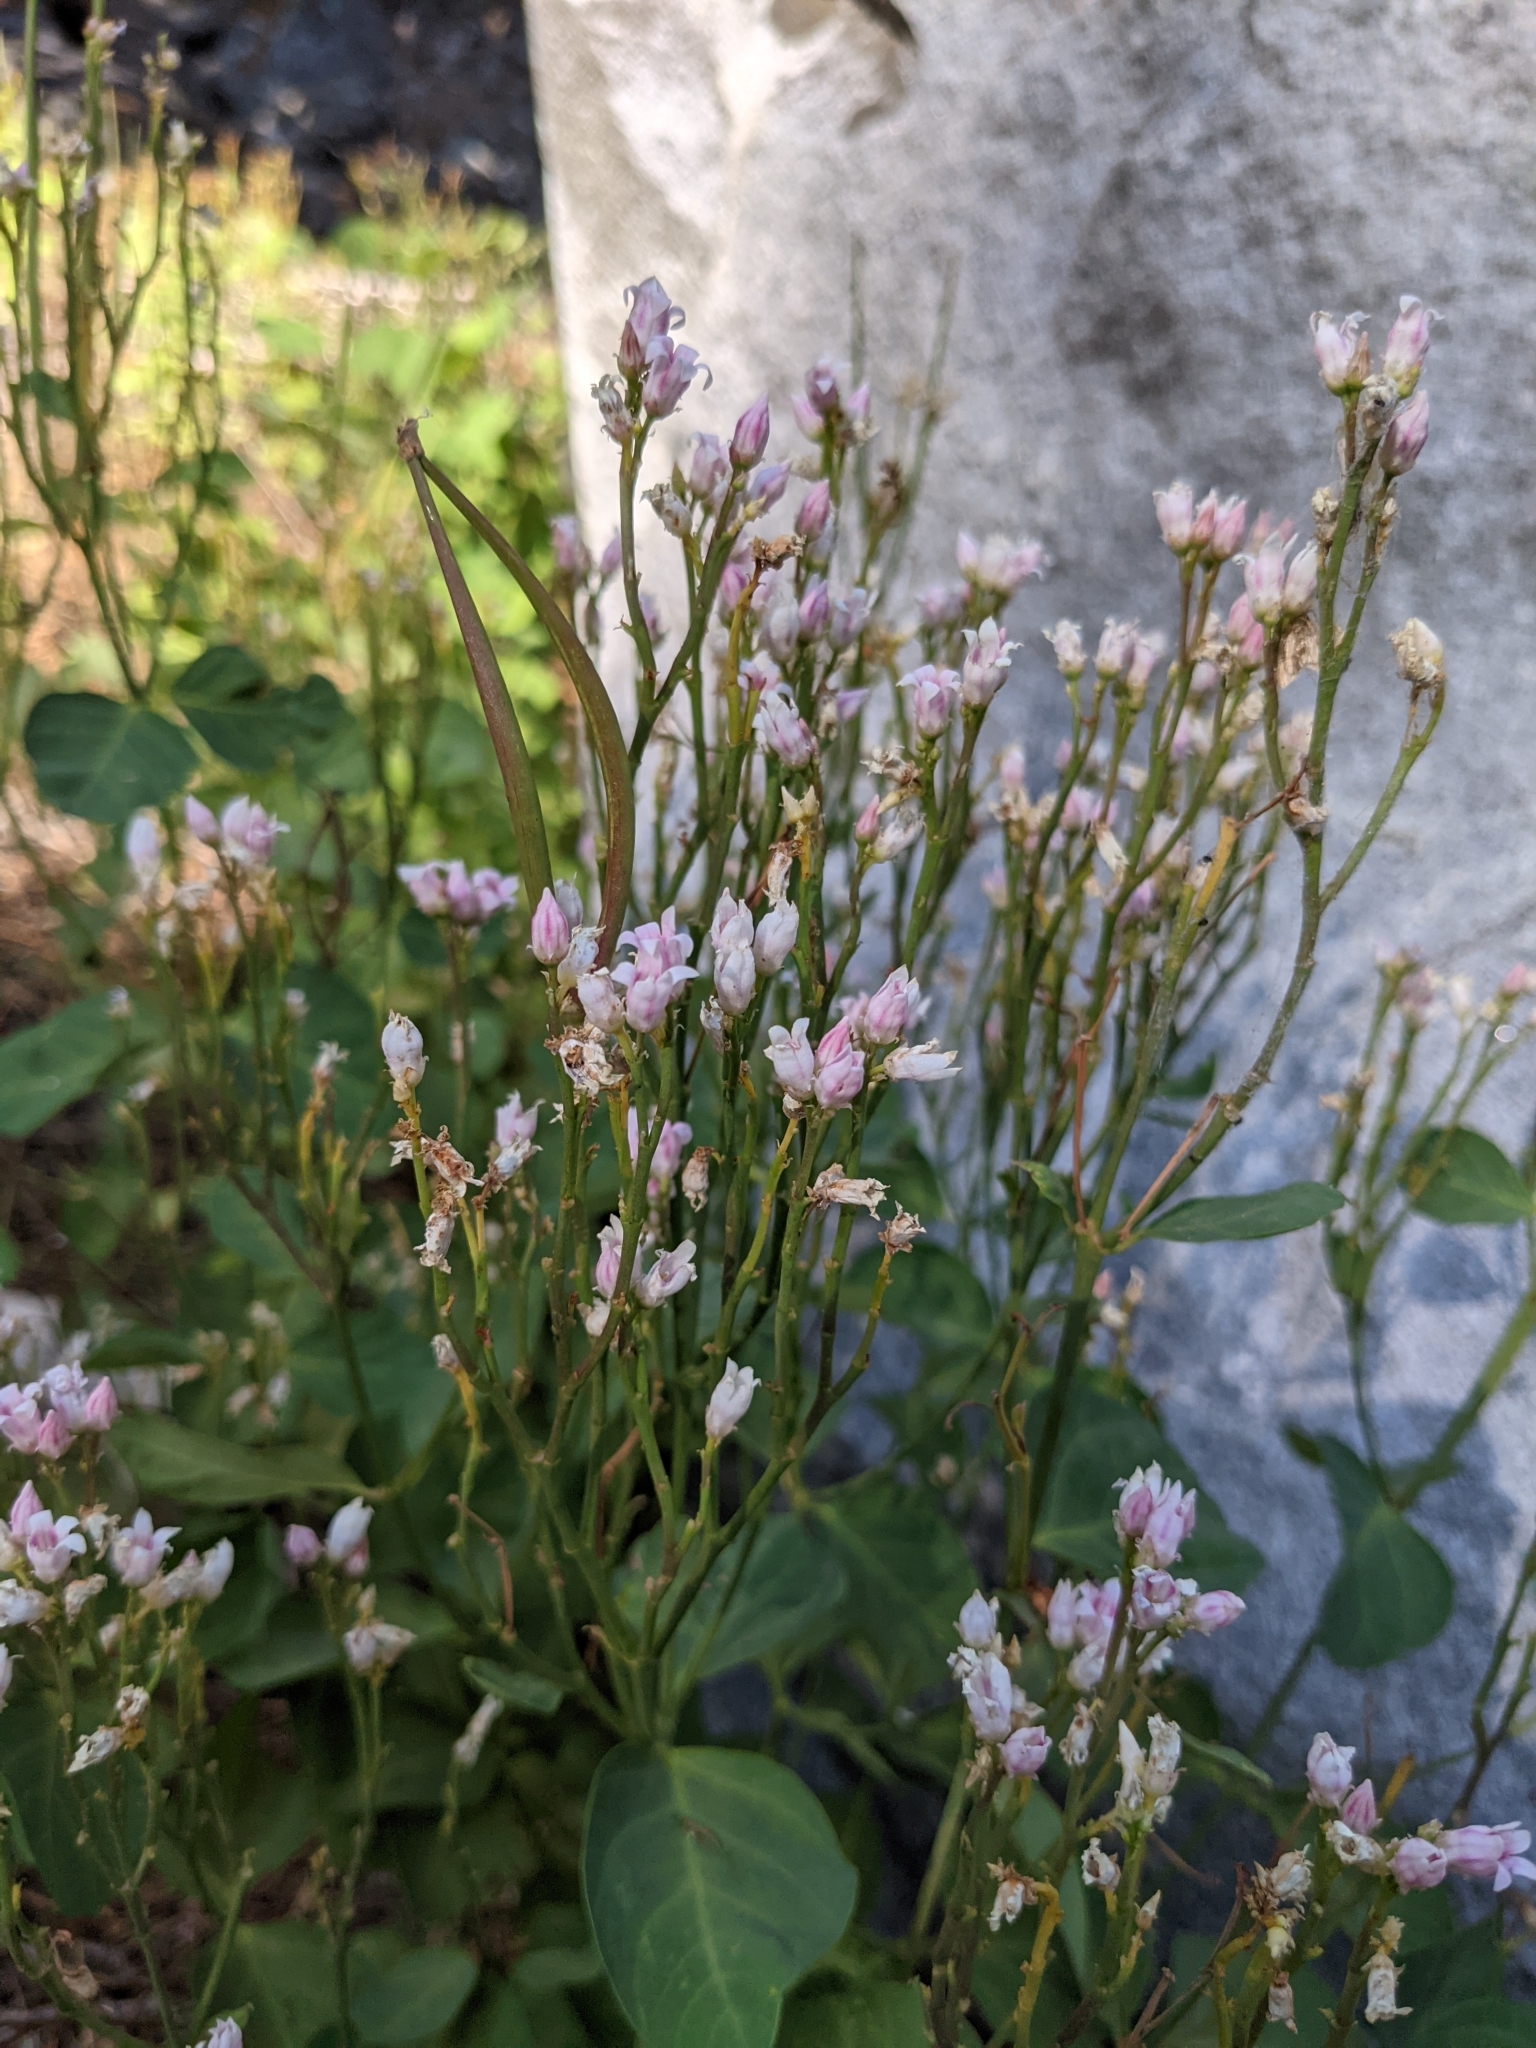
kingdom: Plantae
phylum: Tracheophyta
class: Magnoliopsida
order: Gentianales
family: Apocynaceae
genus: Apocynum
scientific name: Apocynum androsaemifolium
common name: Spreading dogbane
